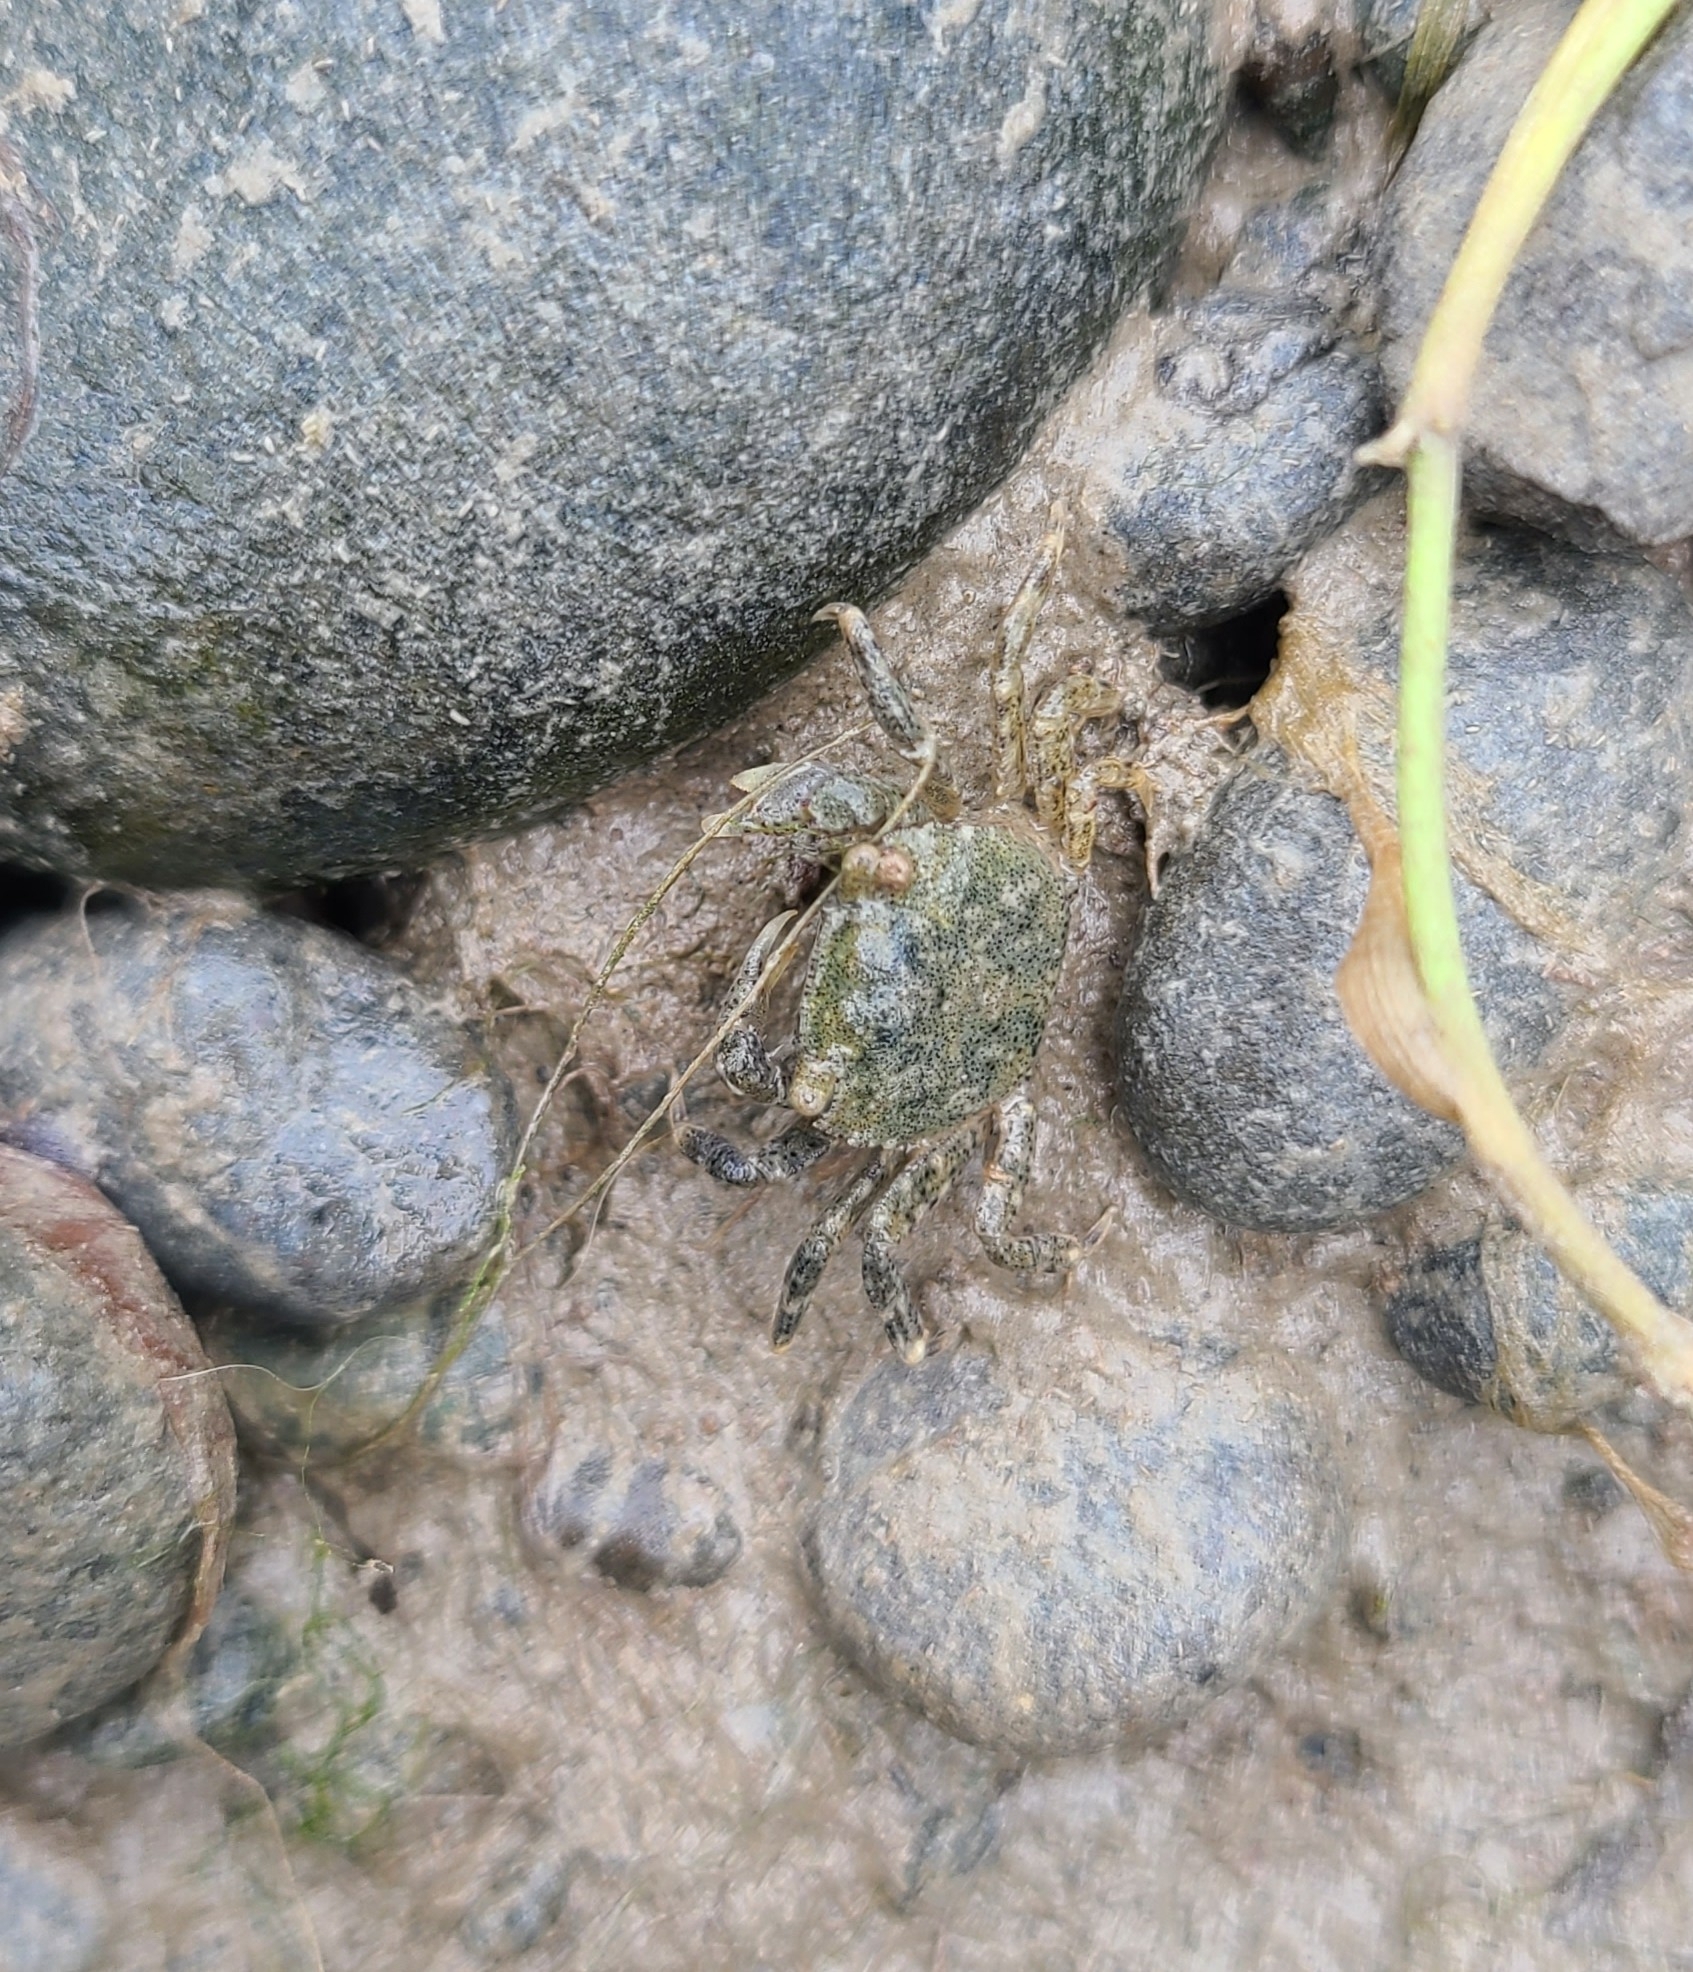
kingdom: Animalia
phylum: Arthropoda
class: Malacostraca
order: Decapoda
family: Varunidae
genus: Hemigrapsus
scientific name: Hemigrapsus crenulatus
